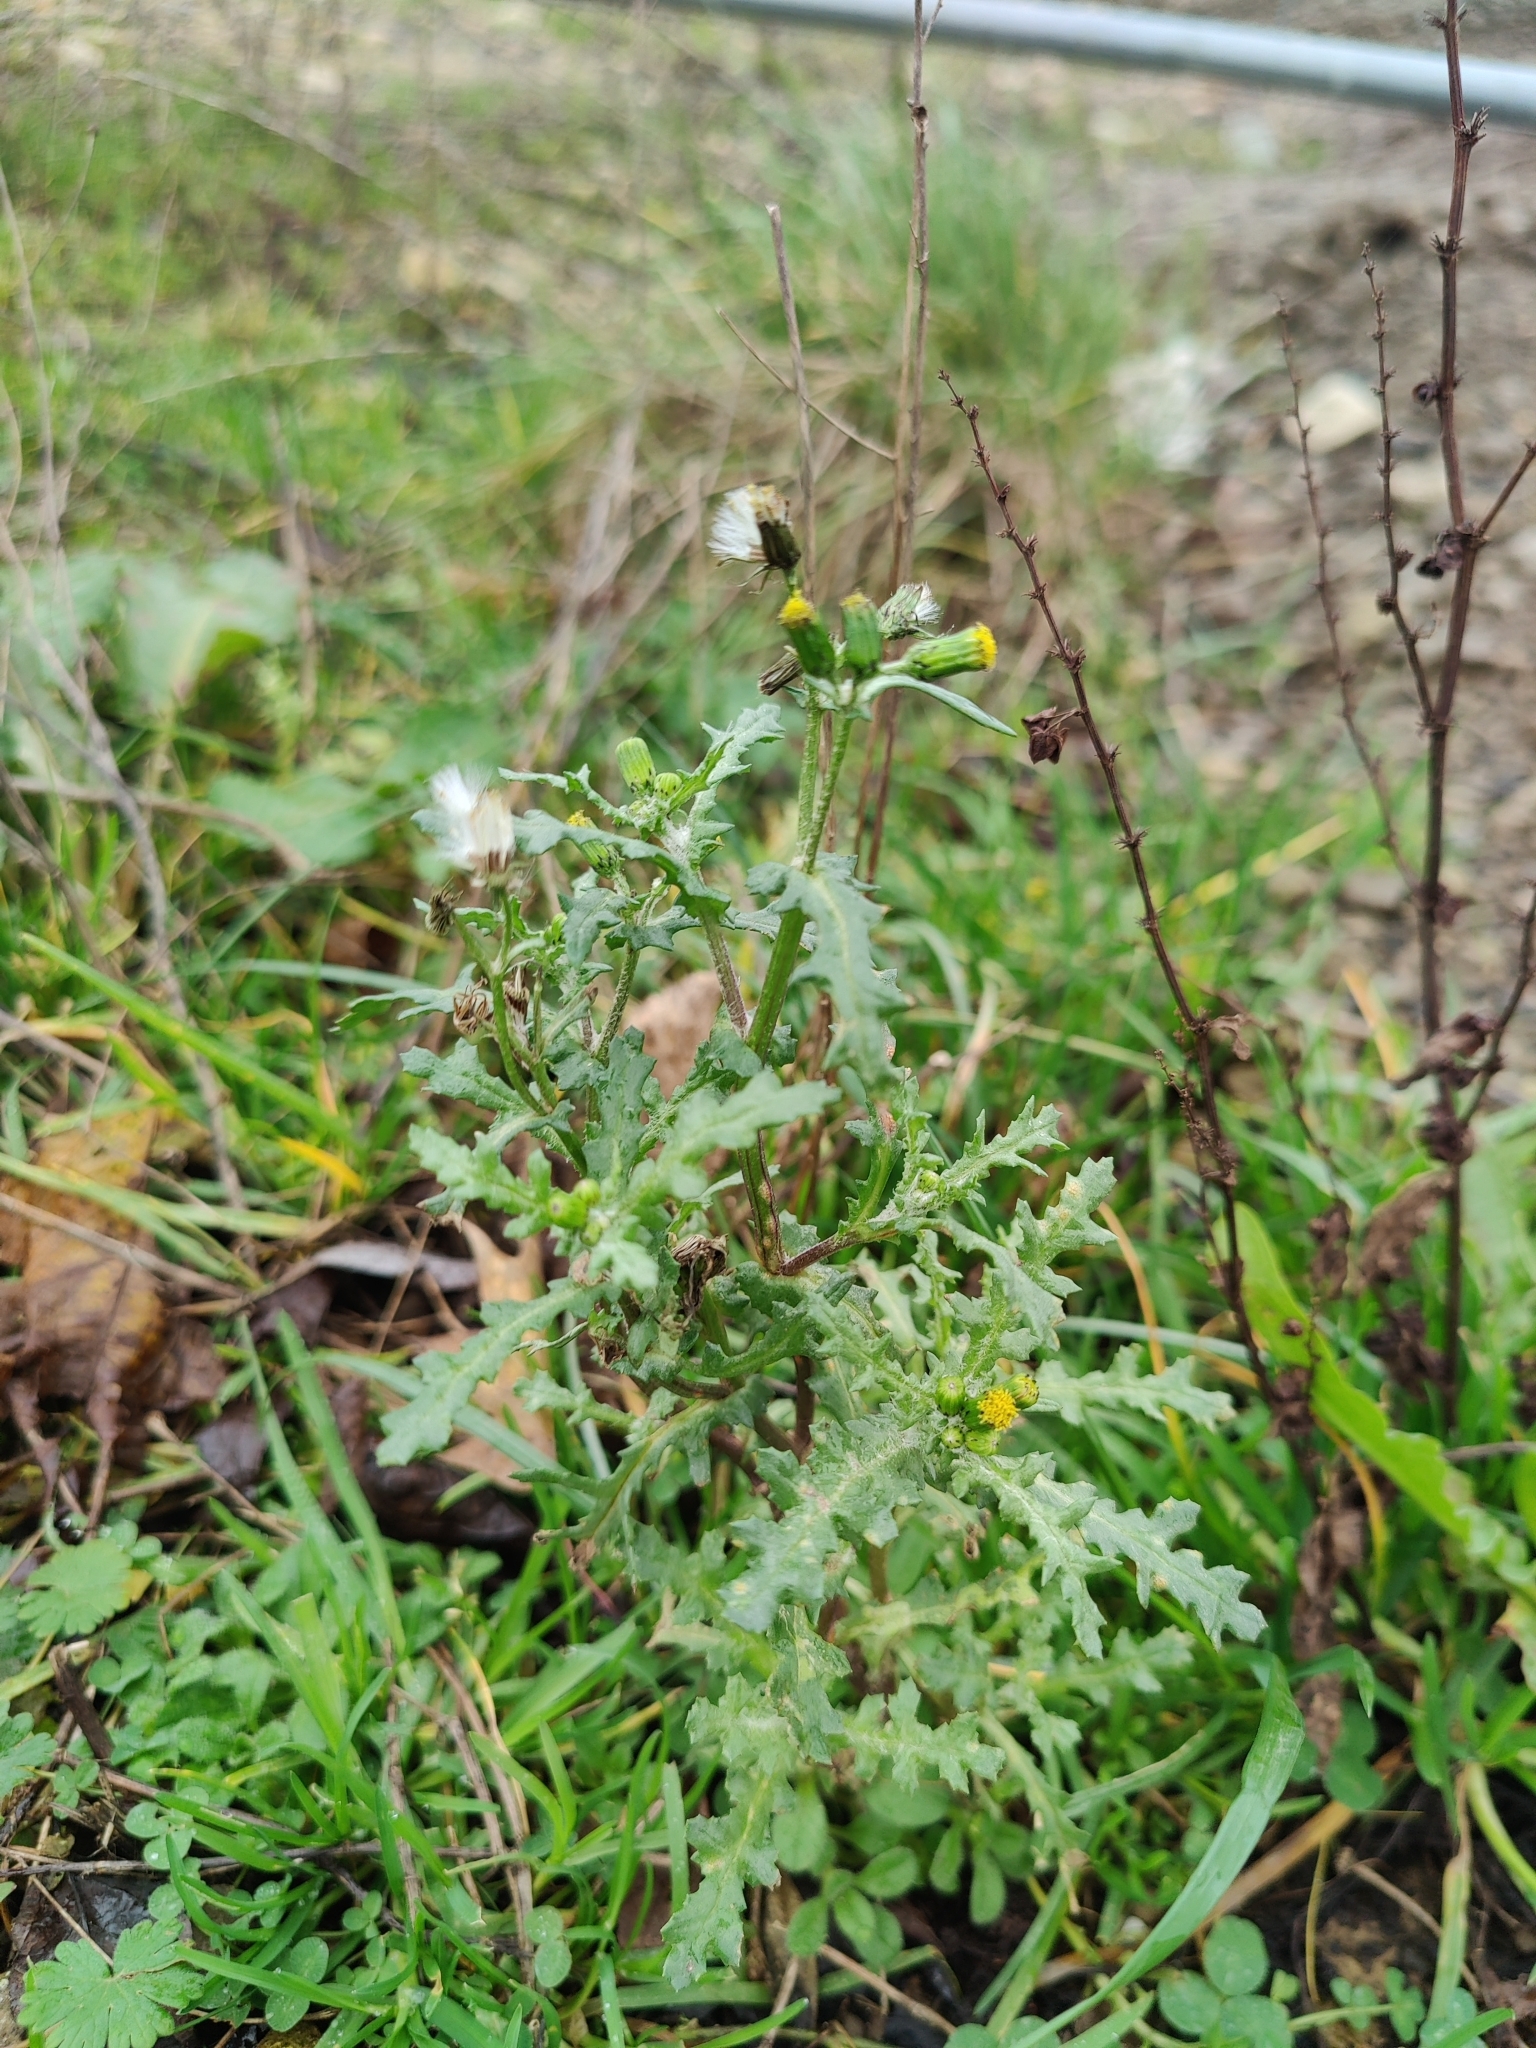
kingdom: Plantae
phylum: Tracheophyta
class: Magnoliopsida
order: Asterales
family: Asteraceae
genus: Senecio
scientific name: Senecio vulgaris
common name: Old-man-in-the-spring
